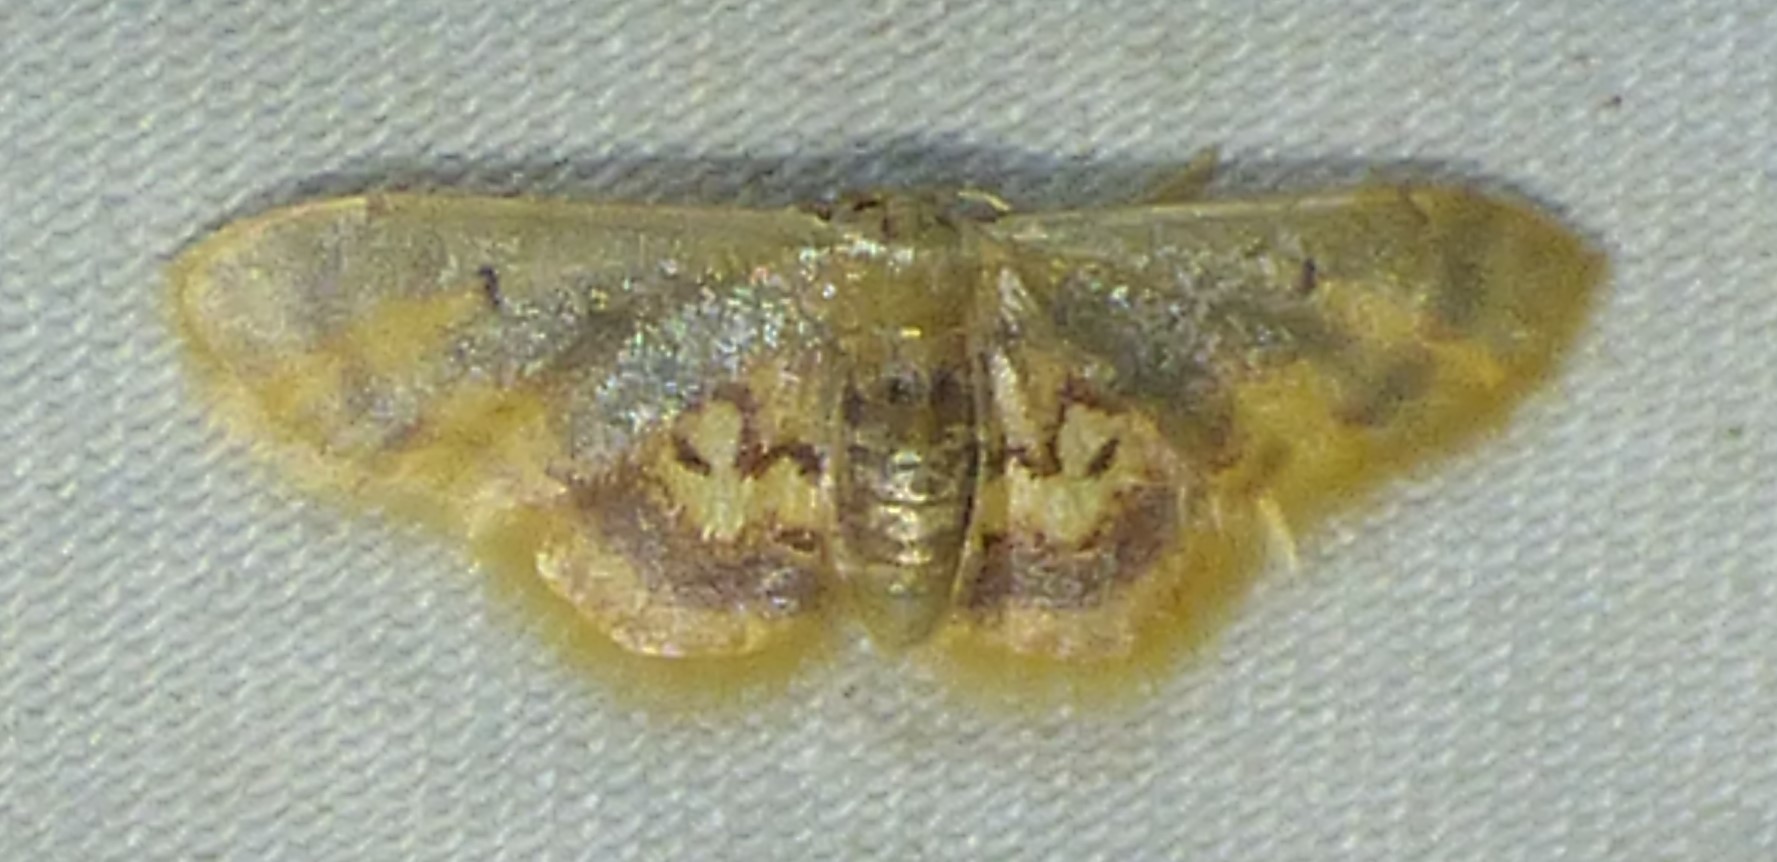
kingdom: Animalia
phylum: Arthropoda
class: Insecta
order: Lepidoptera
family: Geometridae
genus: Idaea
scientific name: Idaea scintillularia
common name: Diminutive wave
